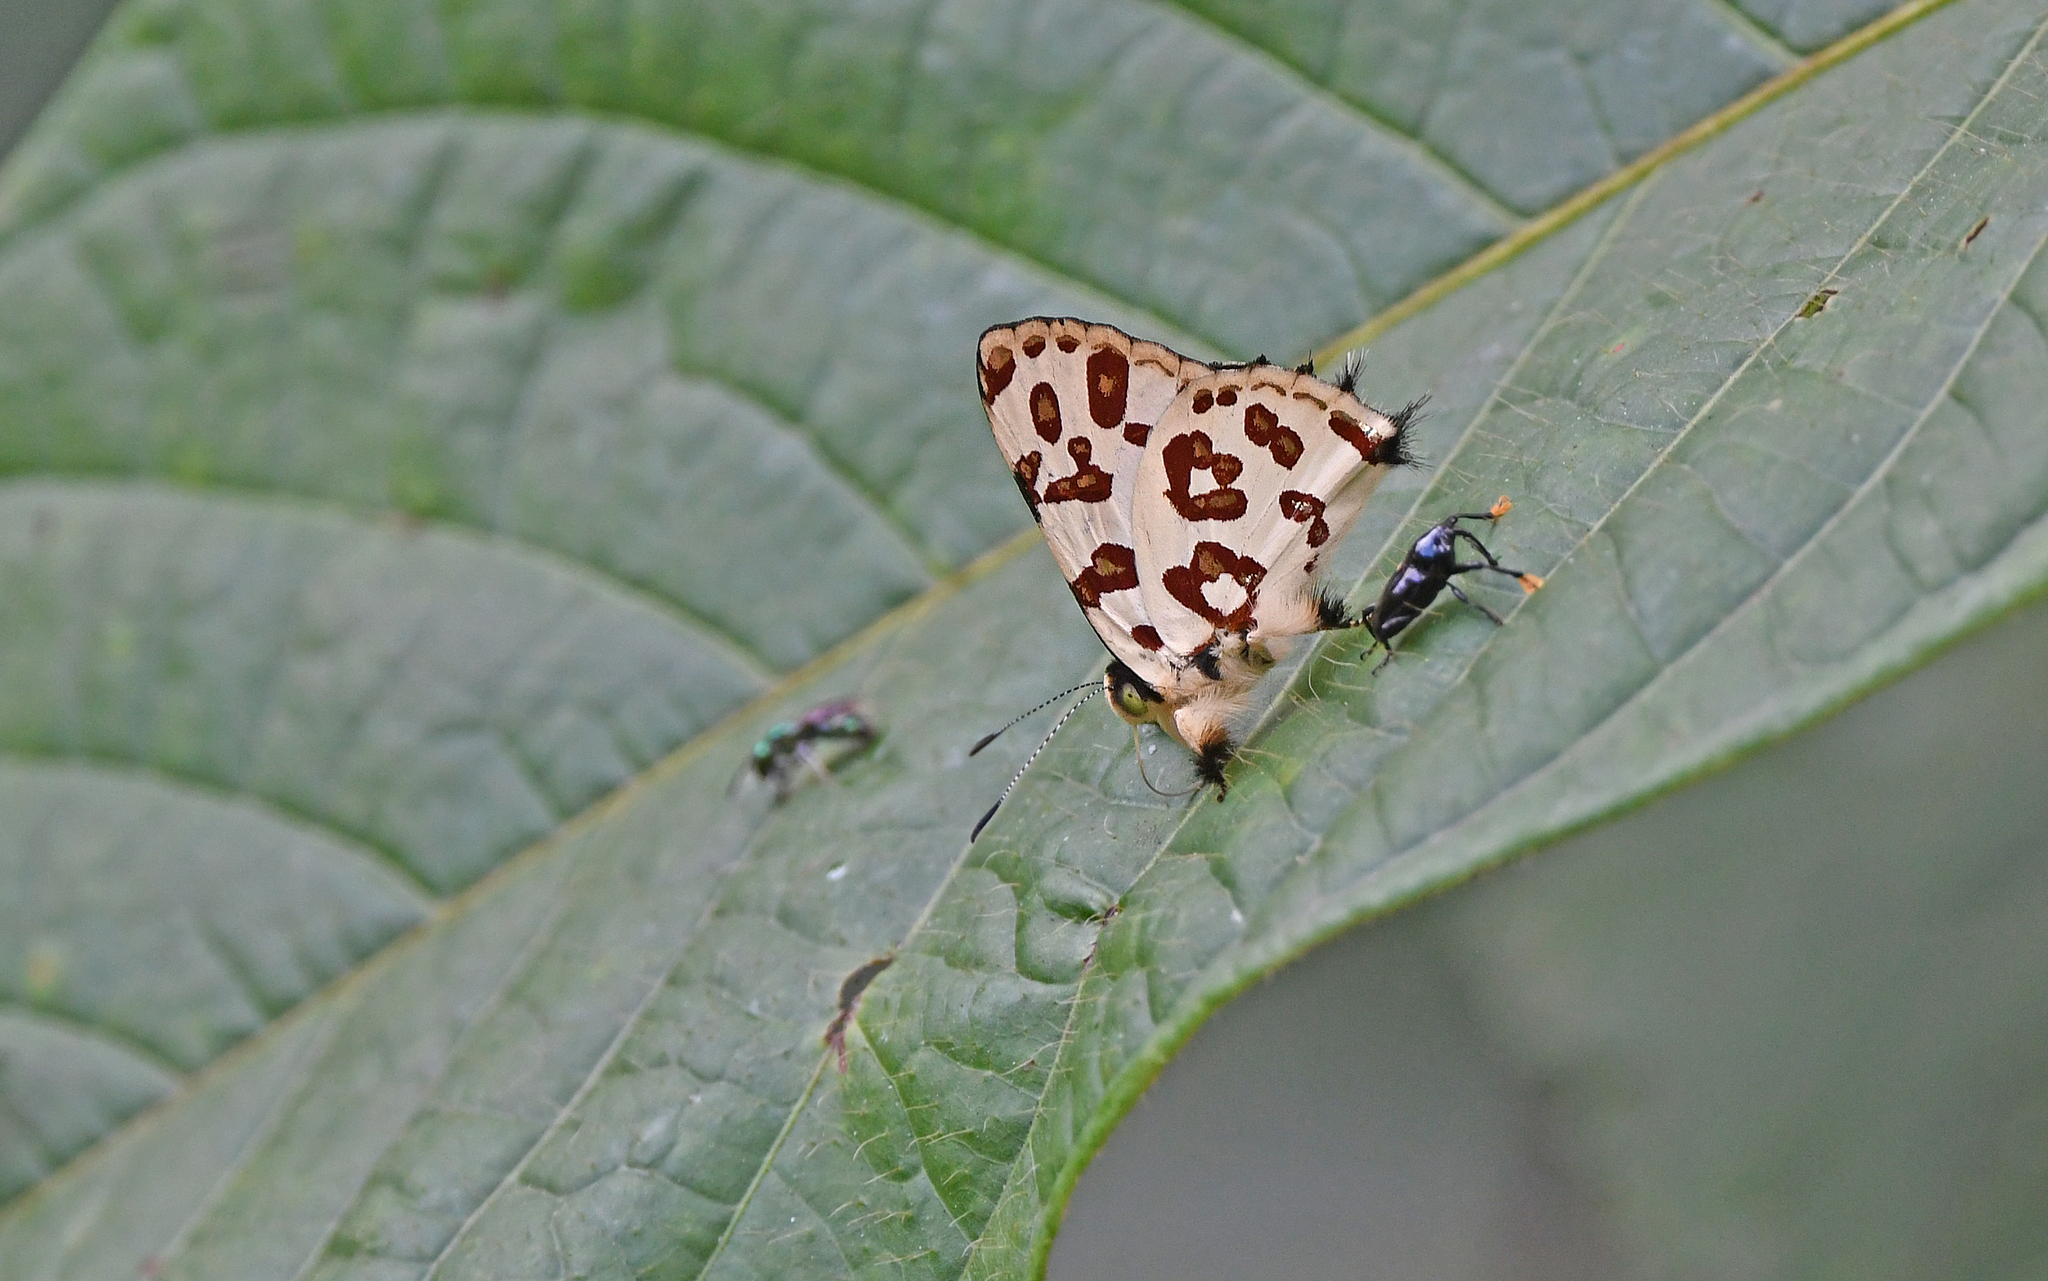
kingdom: Animalia
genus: Anteros
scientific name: Anteros bracteatus
